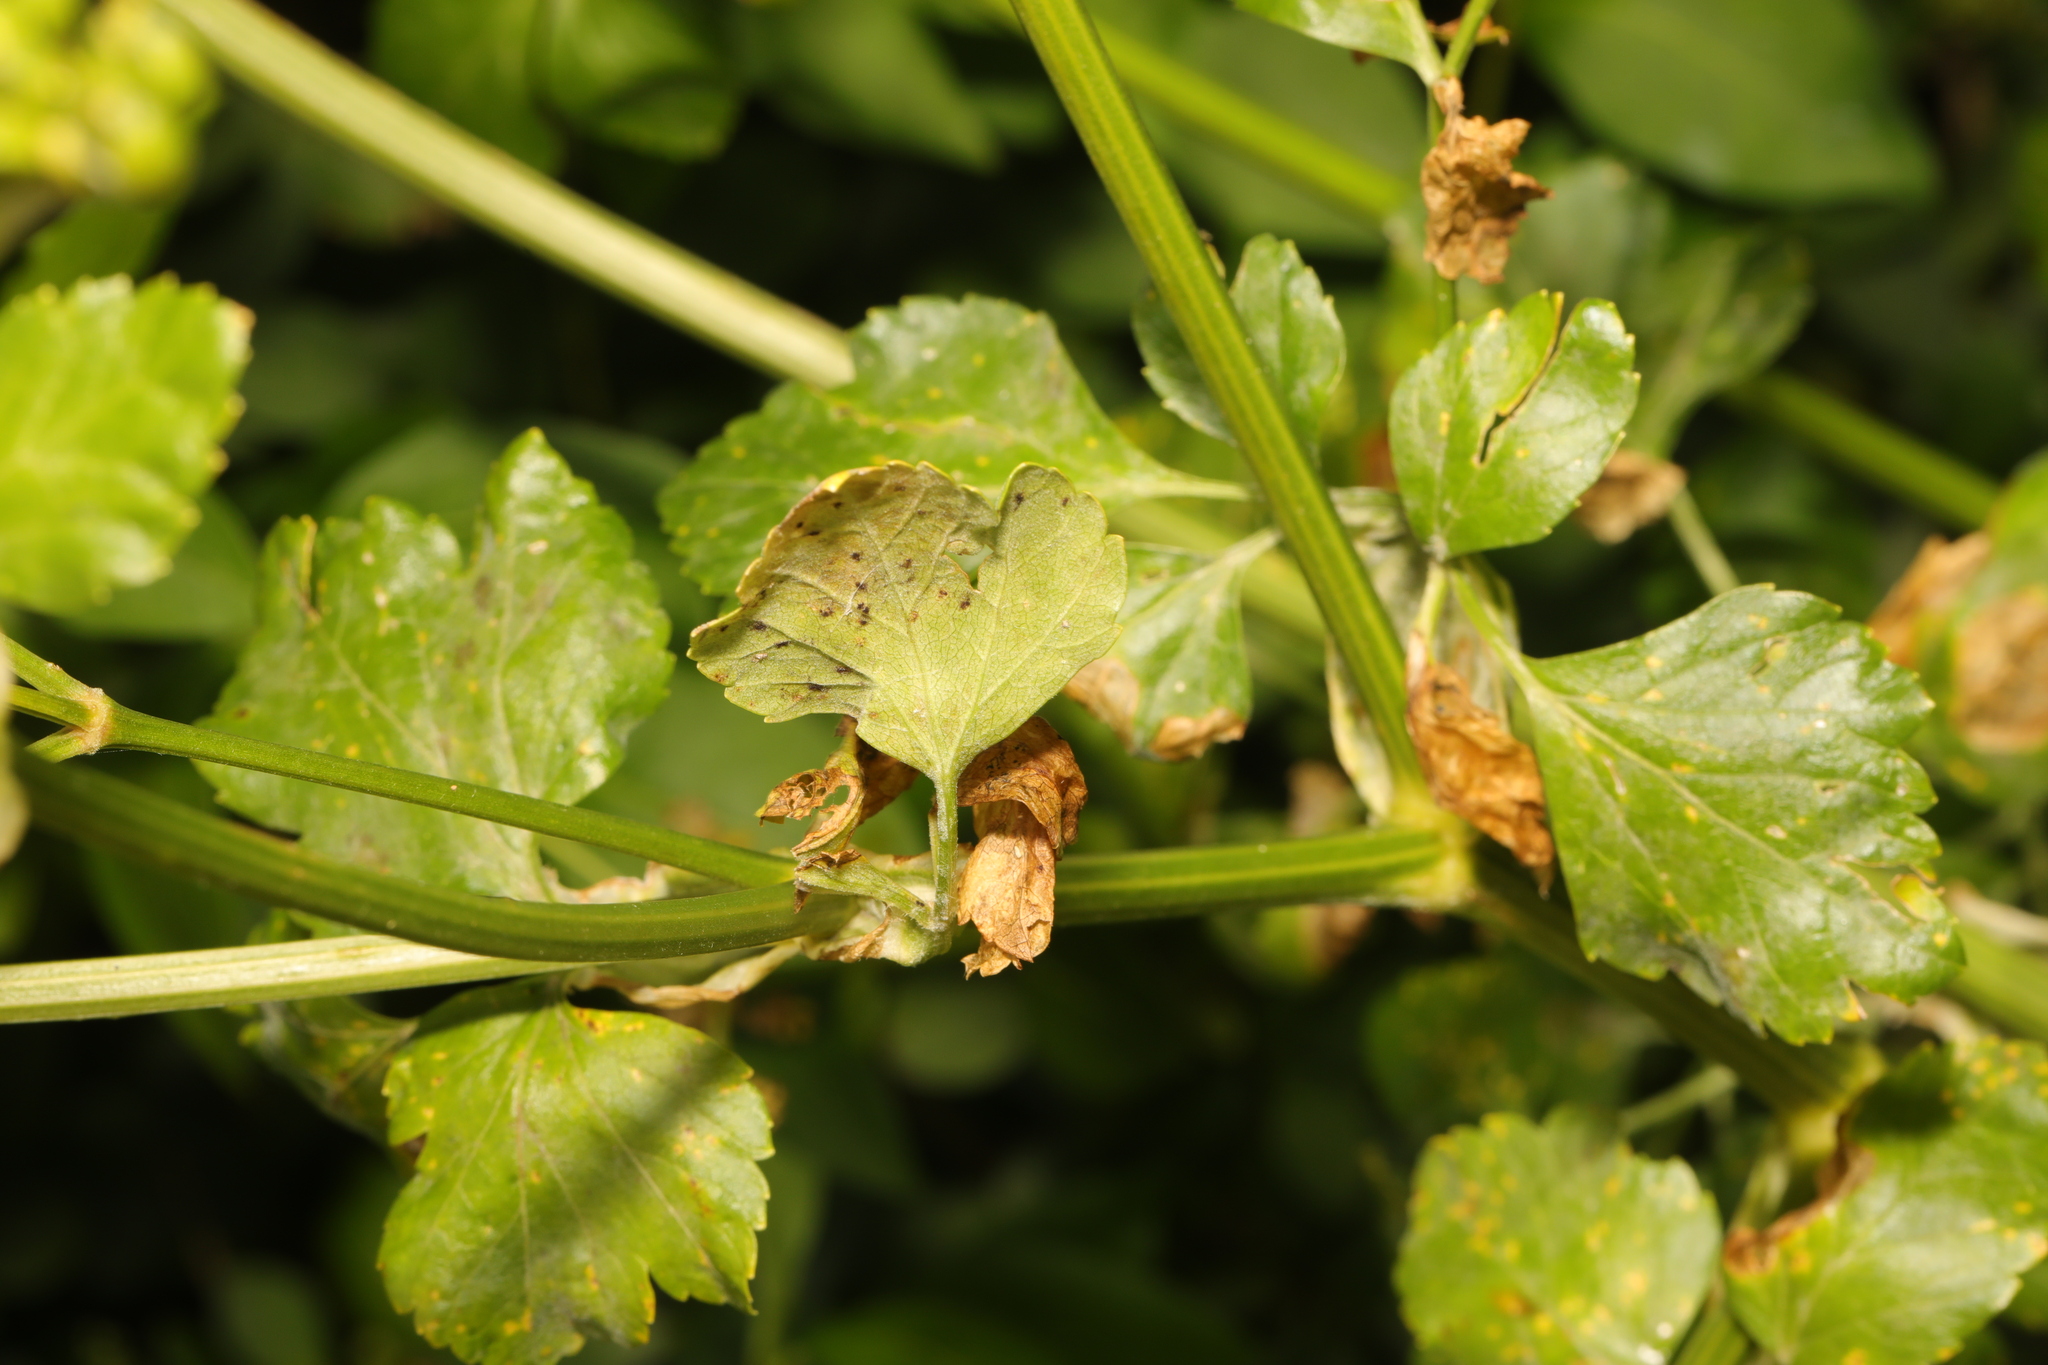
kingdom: Plantae
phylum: Tracheophyta
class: Magnoliopsida
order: Apiales
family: Apiaceae
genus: Smyrnium
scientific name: Smyrnium olusatrum
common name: Alexanders
